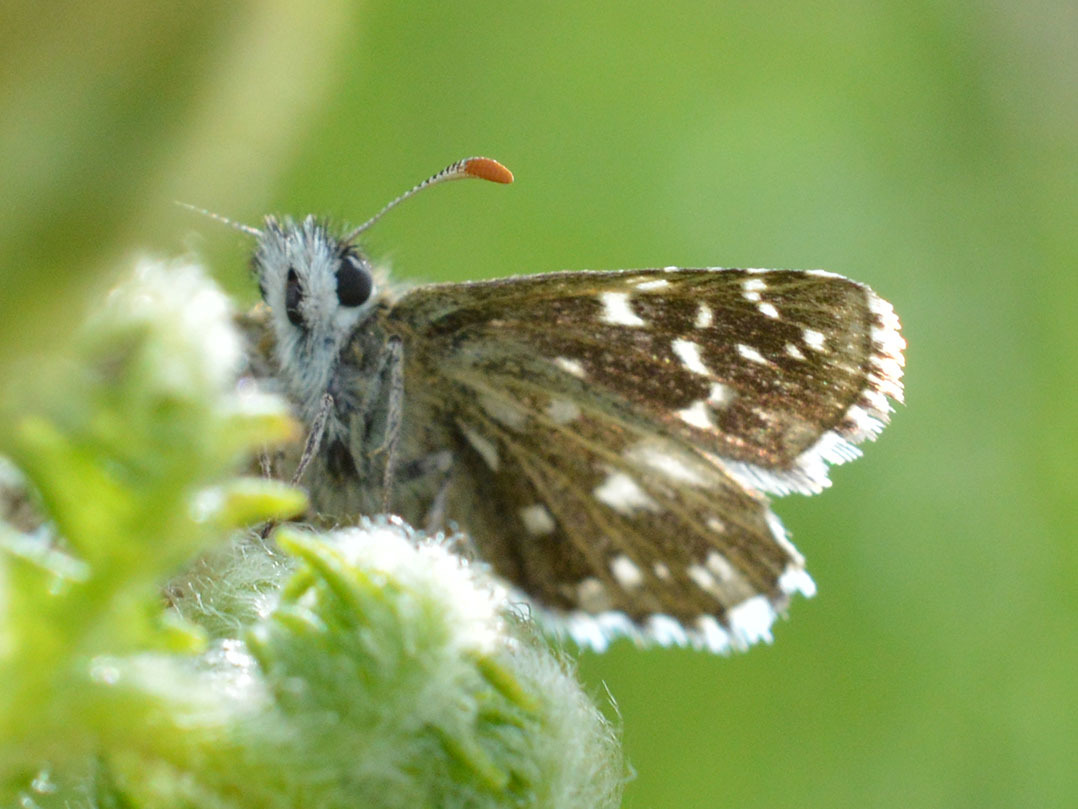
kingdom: Animalia
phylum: Arthropoda
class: Insecta
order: Lepidoptera
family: Hesperiidae
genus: Pyrgus
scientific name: Pyrgus malvae
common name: Grizzled skipper
